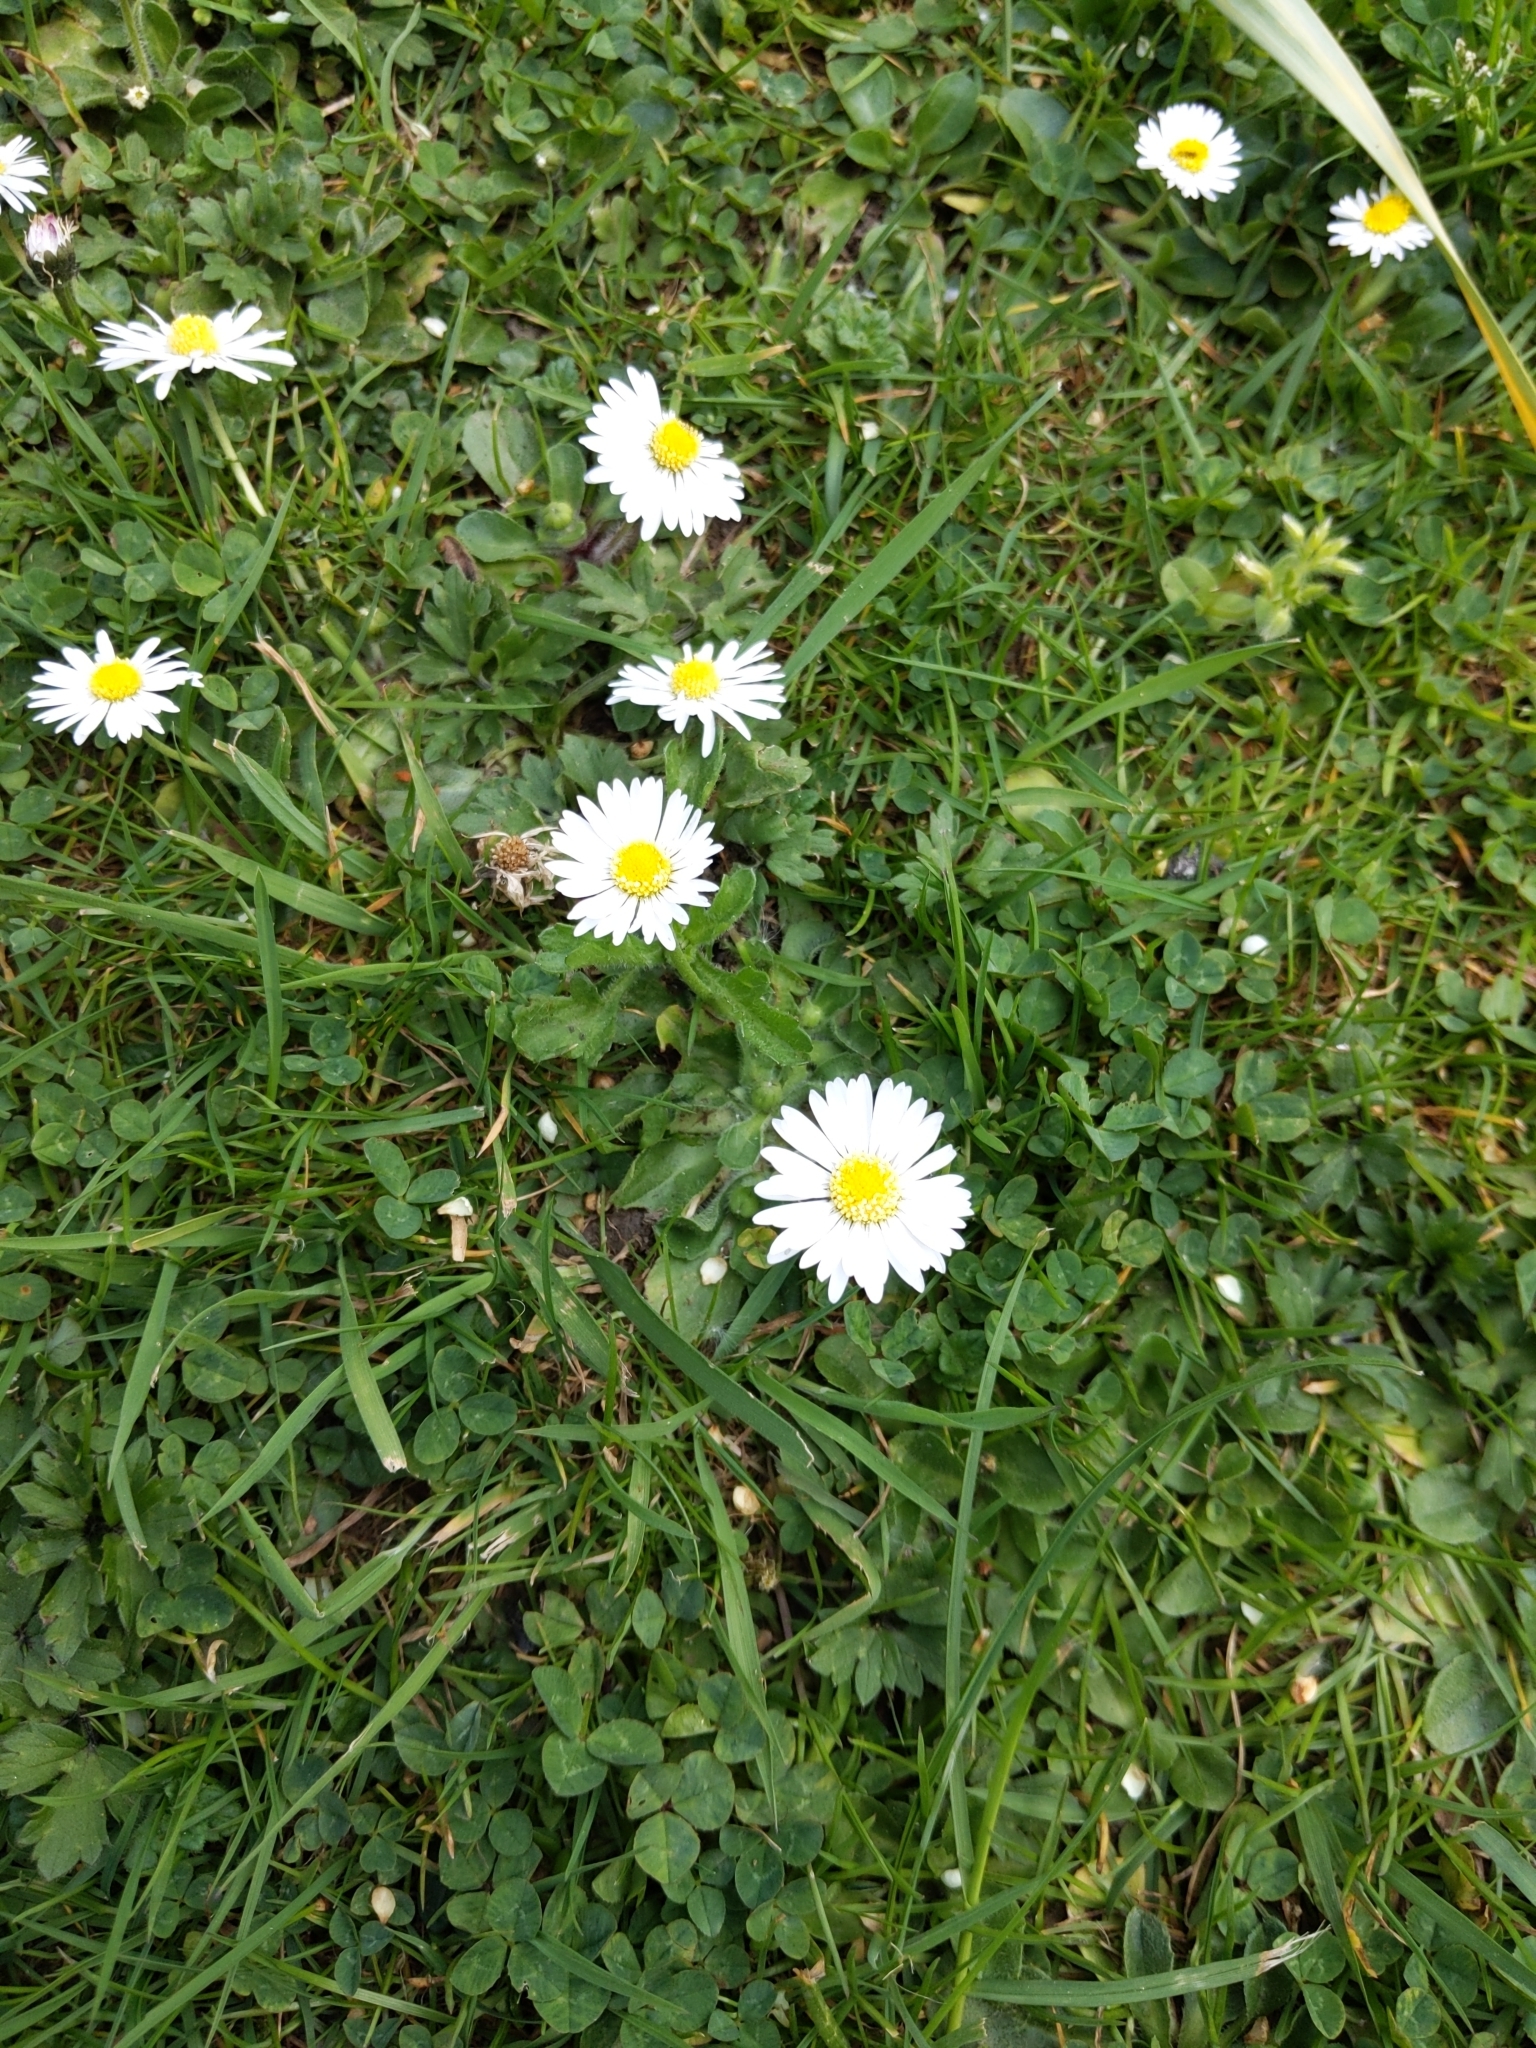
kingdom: Plantae
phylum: Tracheophyta
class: Magnoliopsida
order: Asterales
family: Asteraceae
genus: Bellis
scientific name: Bellis perennis
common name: Lawndaisy
